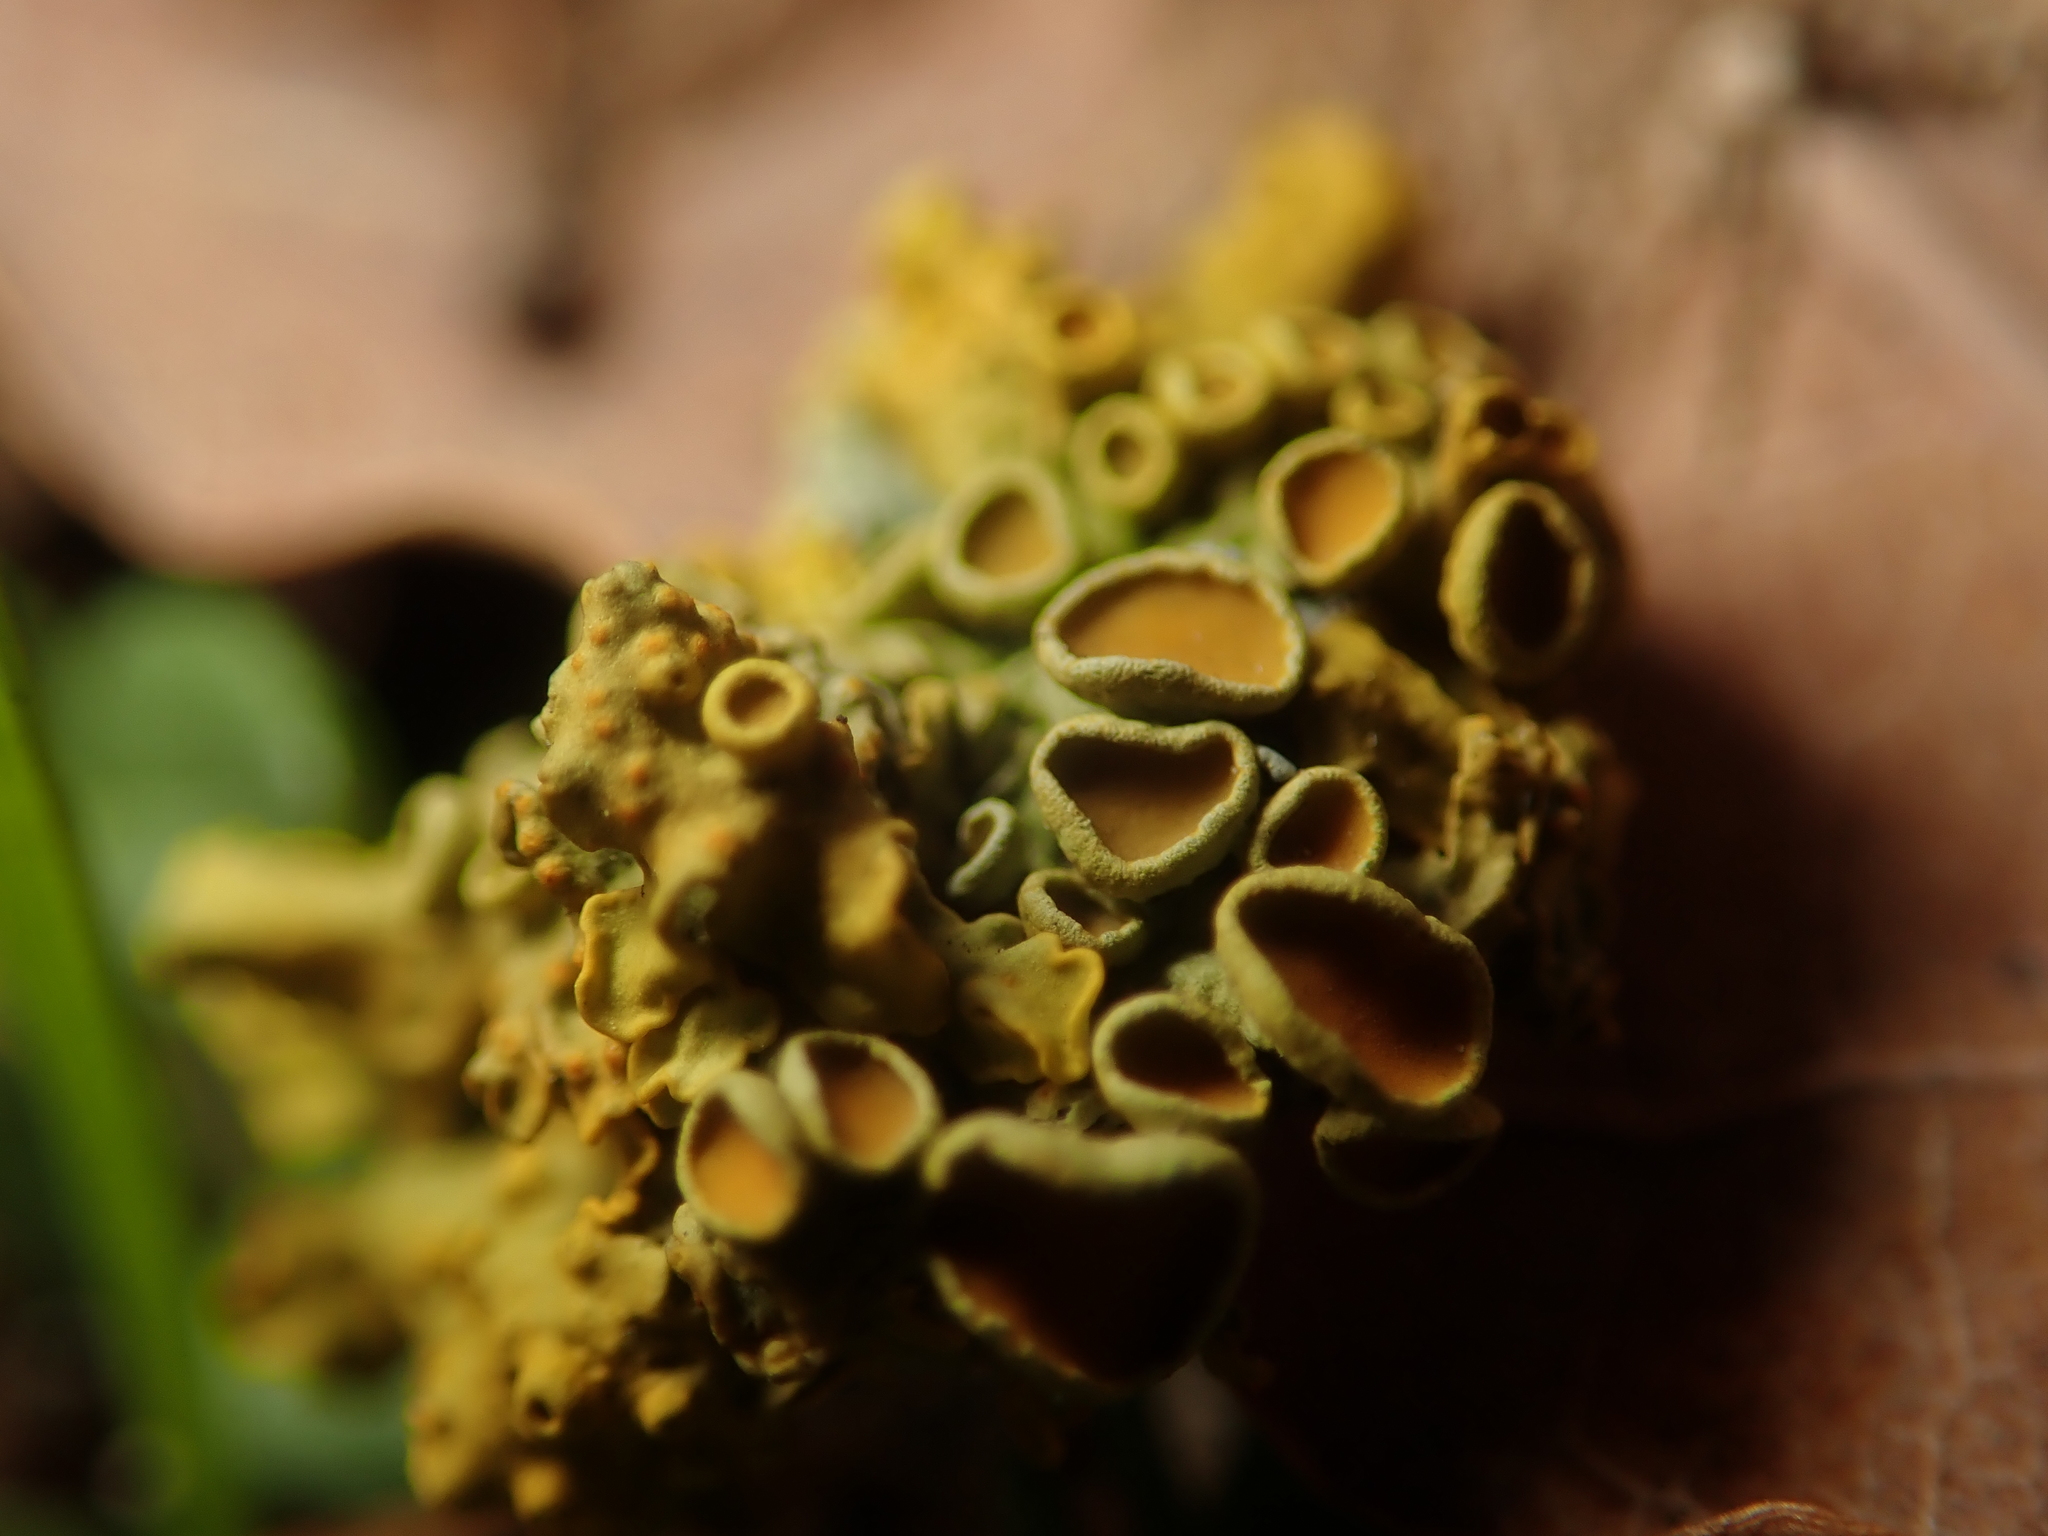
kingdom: Fungi
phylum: Ascomycota
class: Lecanoromycetes
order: Teloschistales
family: Teloschistaceae
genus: Xanthoria
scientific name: Xanthoria parietina
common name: Common orange lichen
